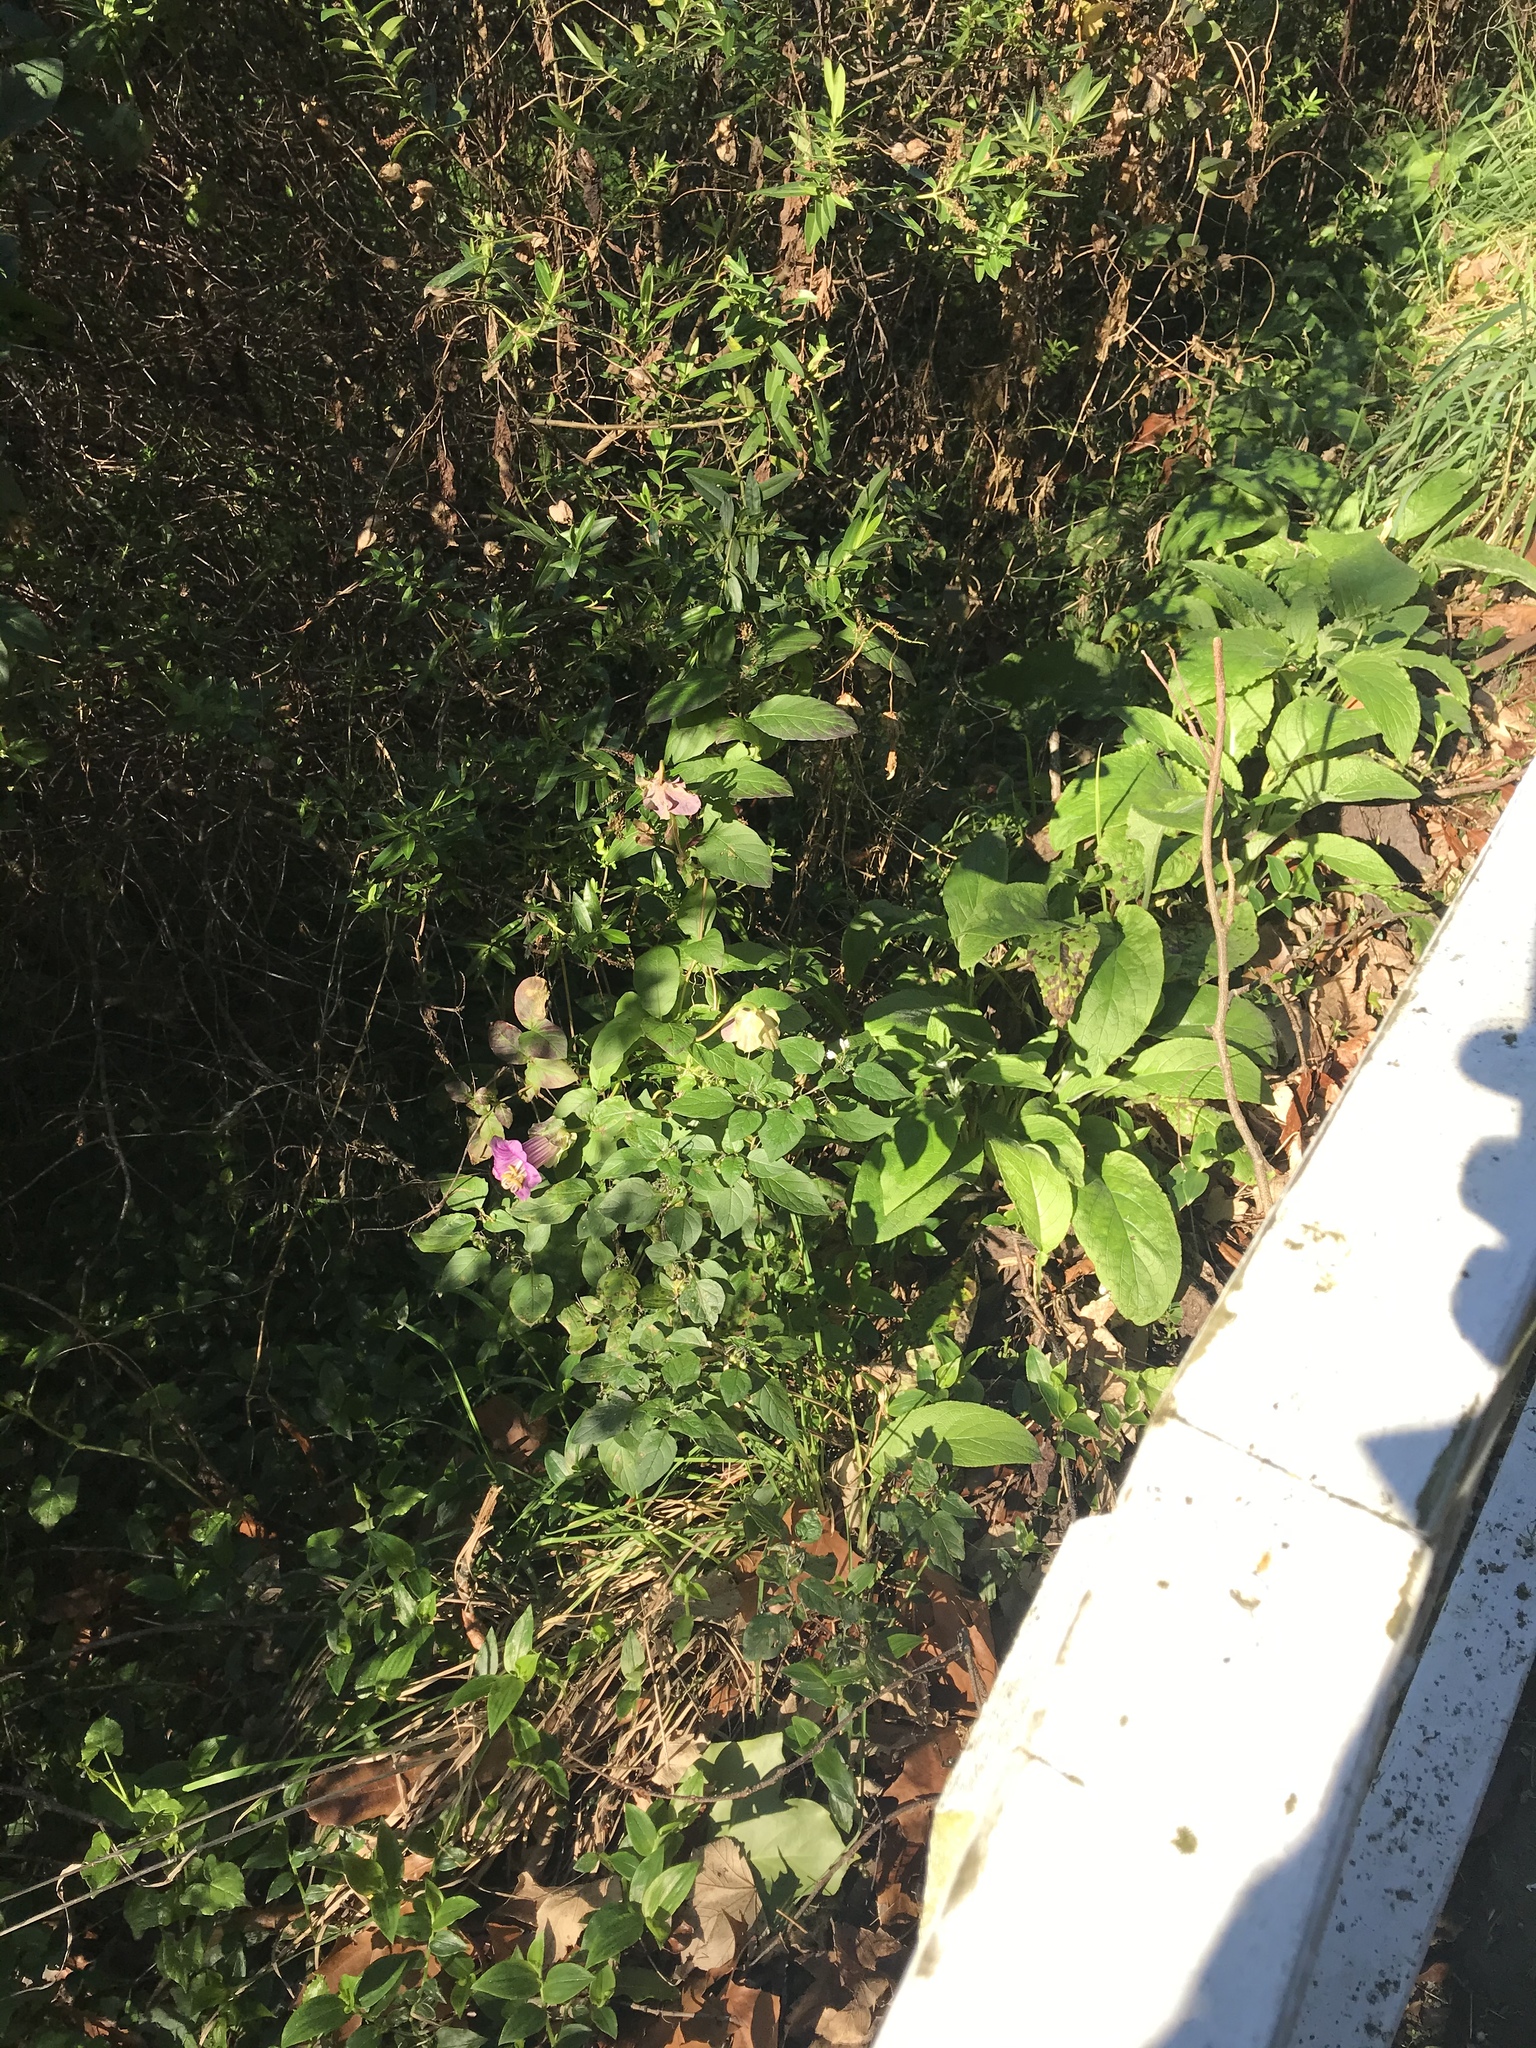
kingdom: Plantae
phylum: Tracheophyta
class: Magnoliopsida
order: Ericales
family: Polemoniaceae
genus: Cobaea
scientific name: Cobaea scandens
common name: Cup-and-saucer-vine
